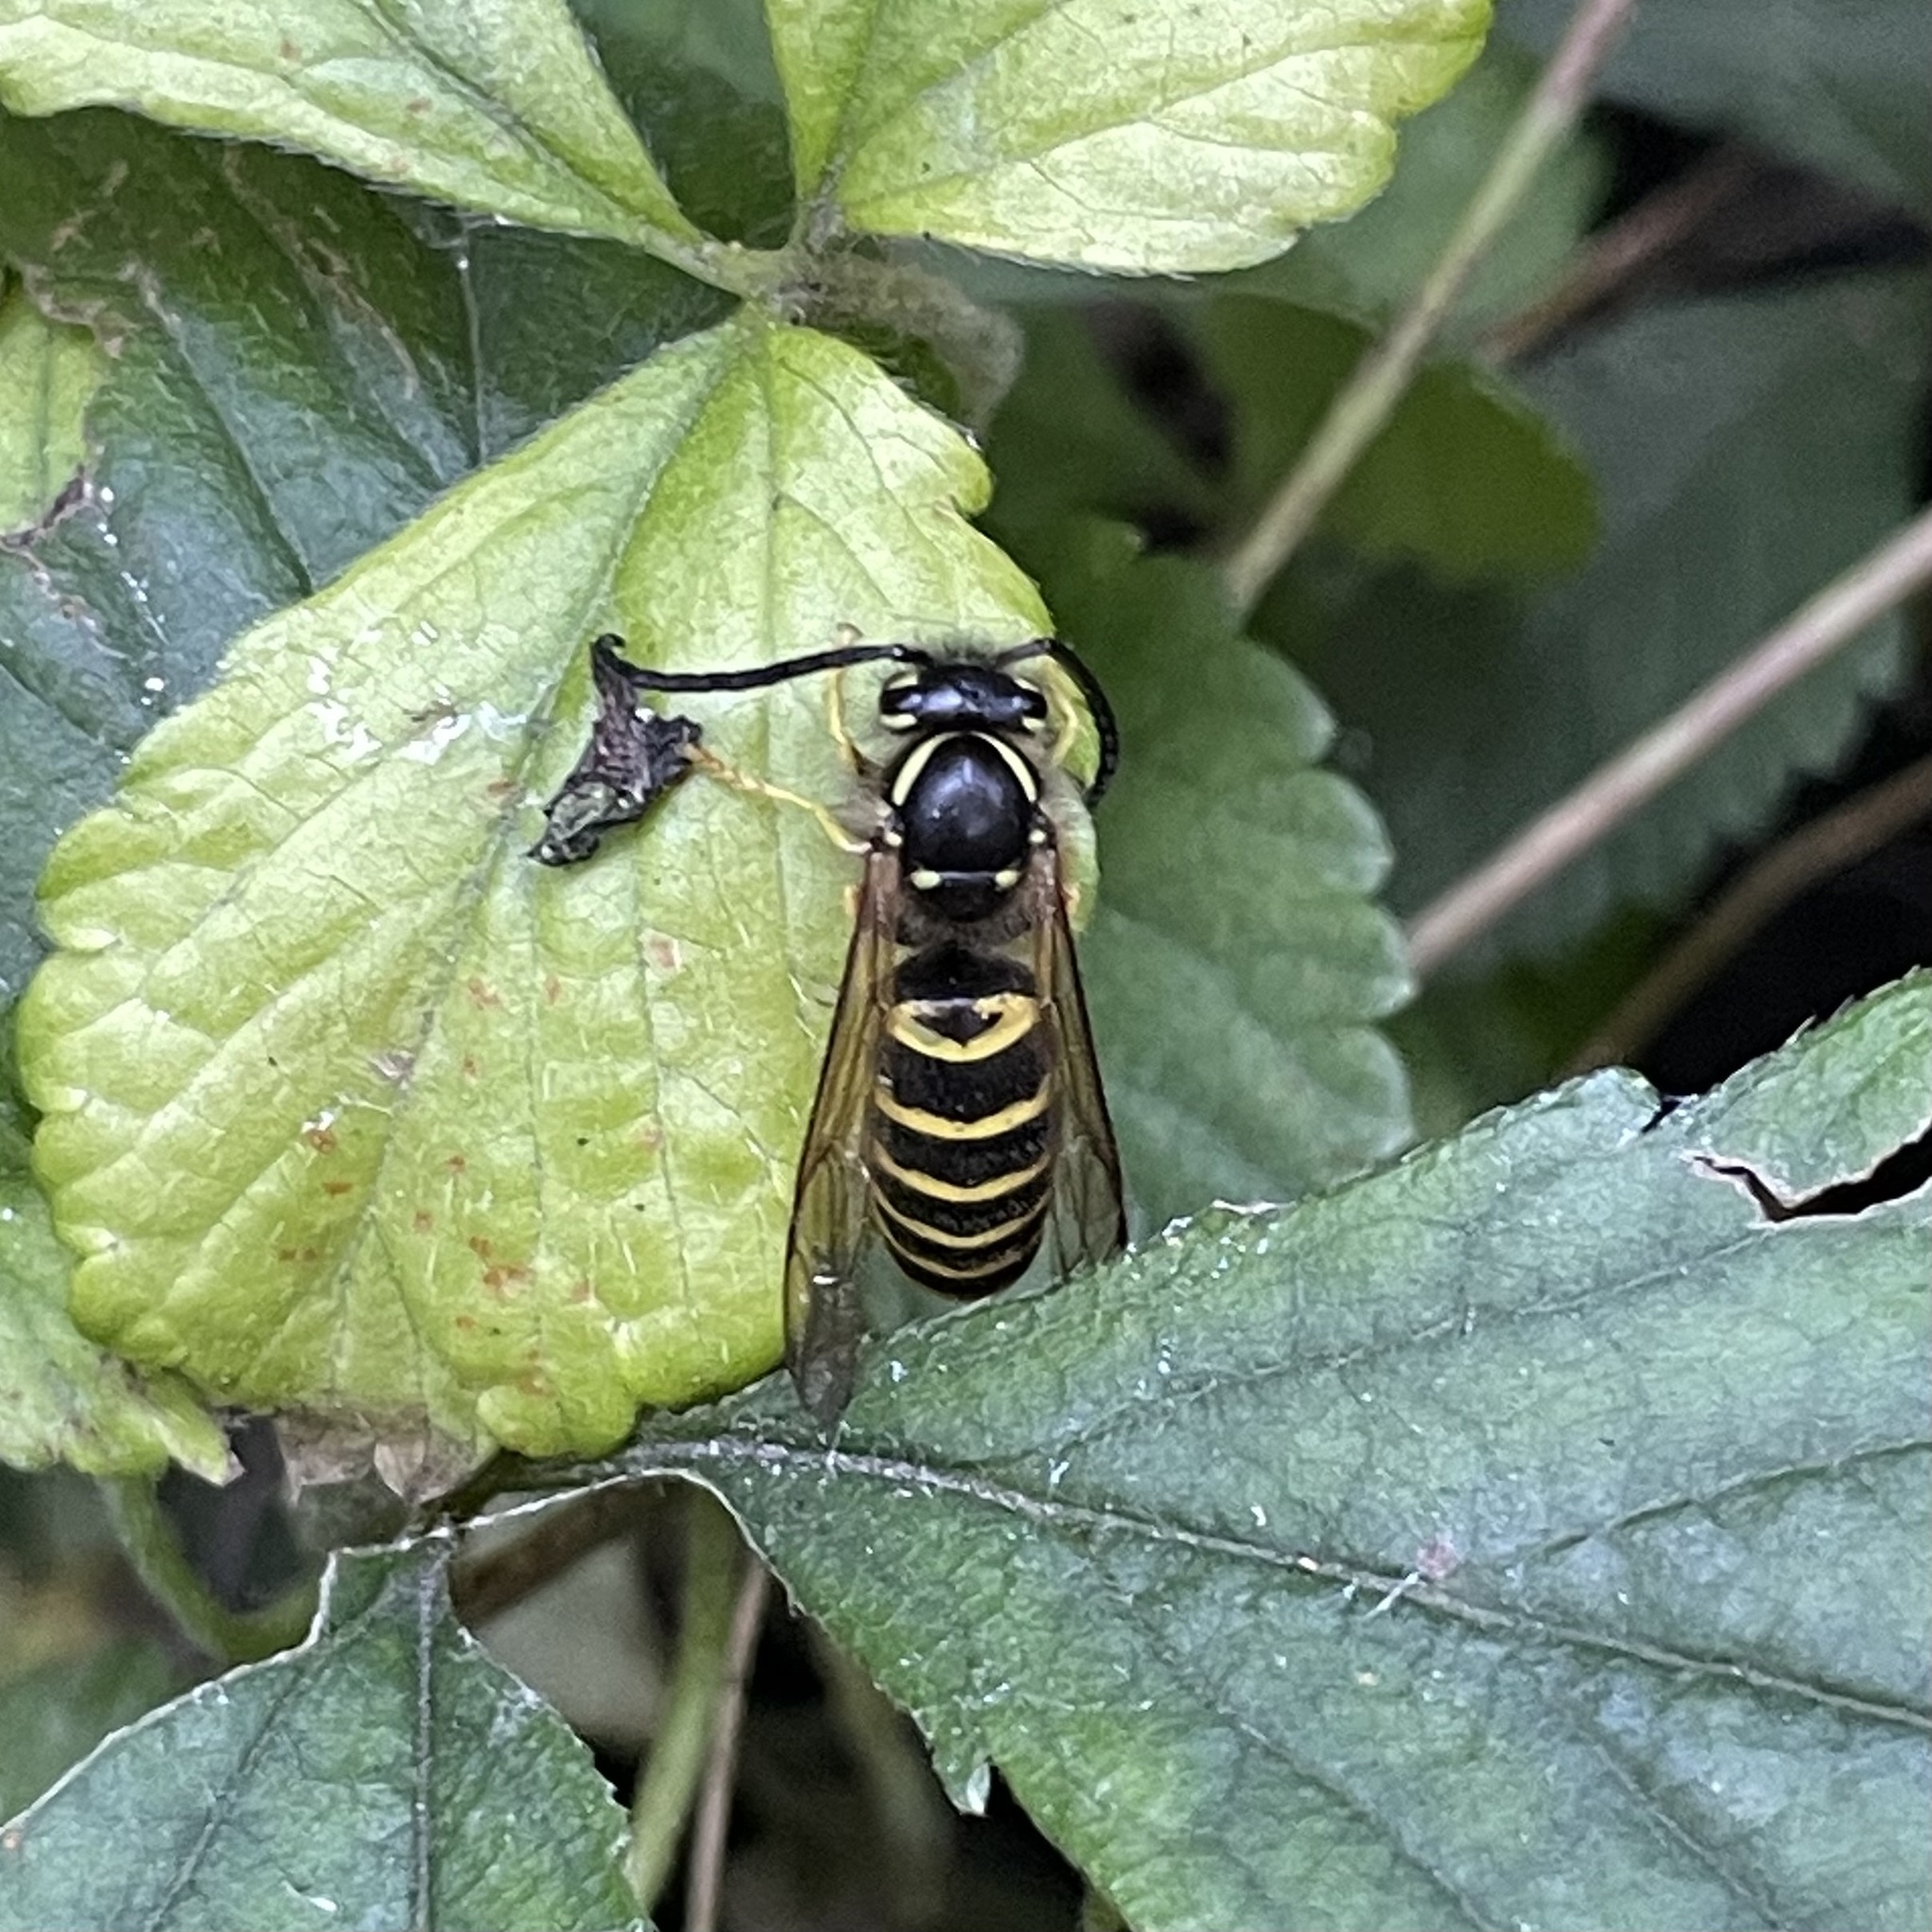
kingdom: Animalia
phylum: Arthropoda
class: Insecta
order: Hymenoptera
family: Vespidae
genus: Vespula
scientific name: Vespula maculifrons
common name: Eastern yellowjacket
